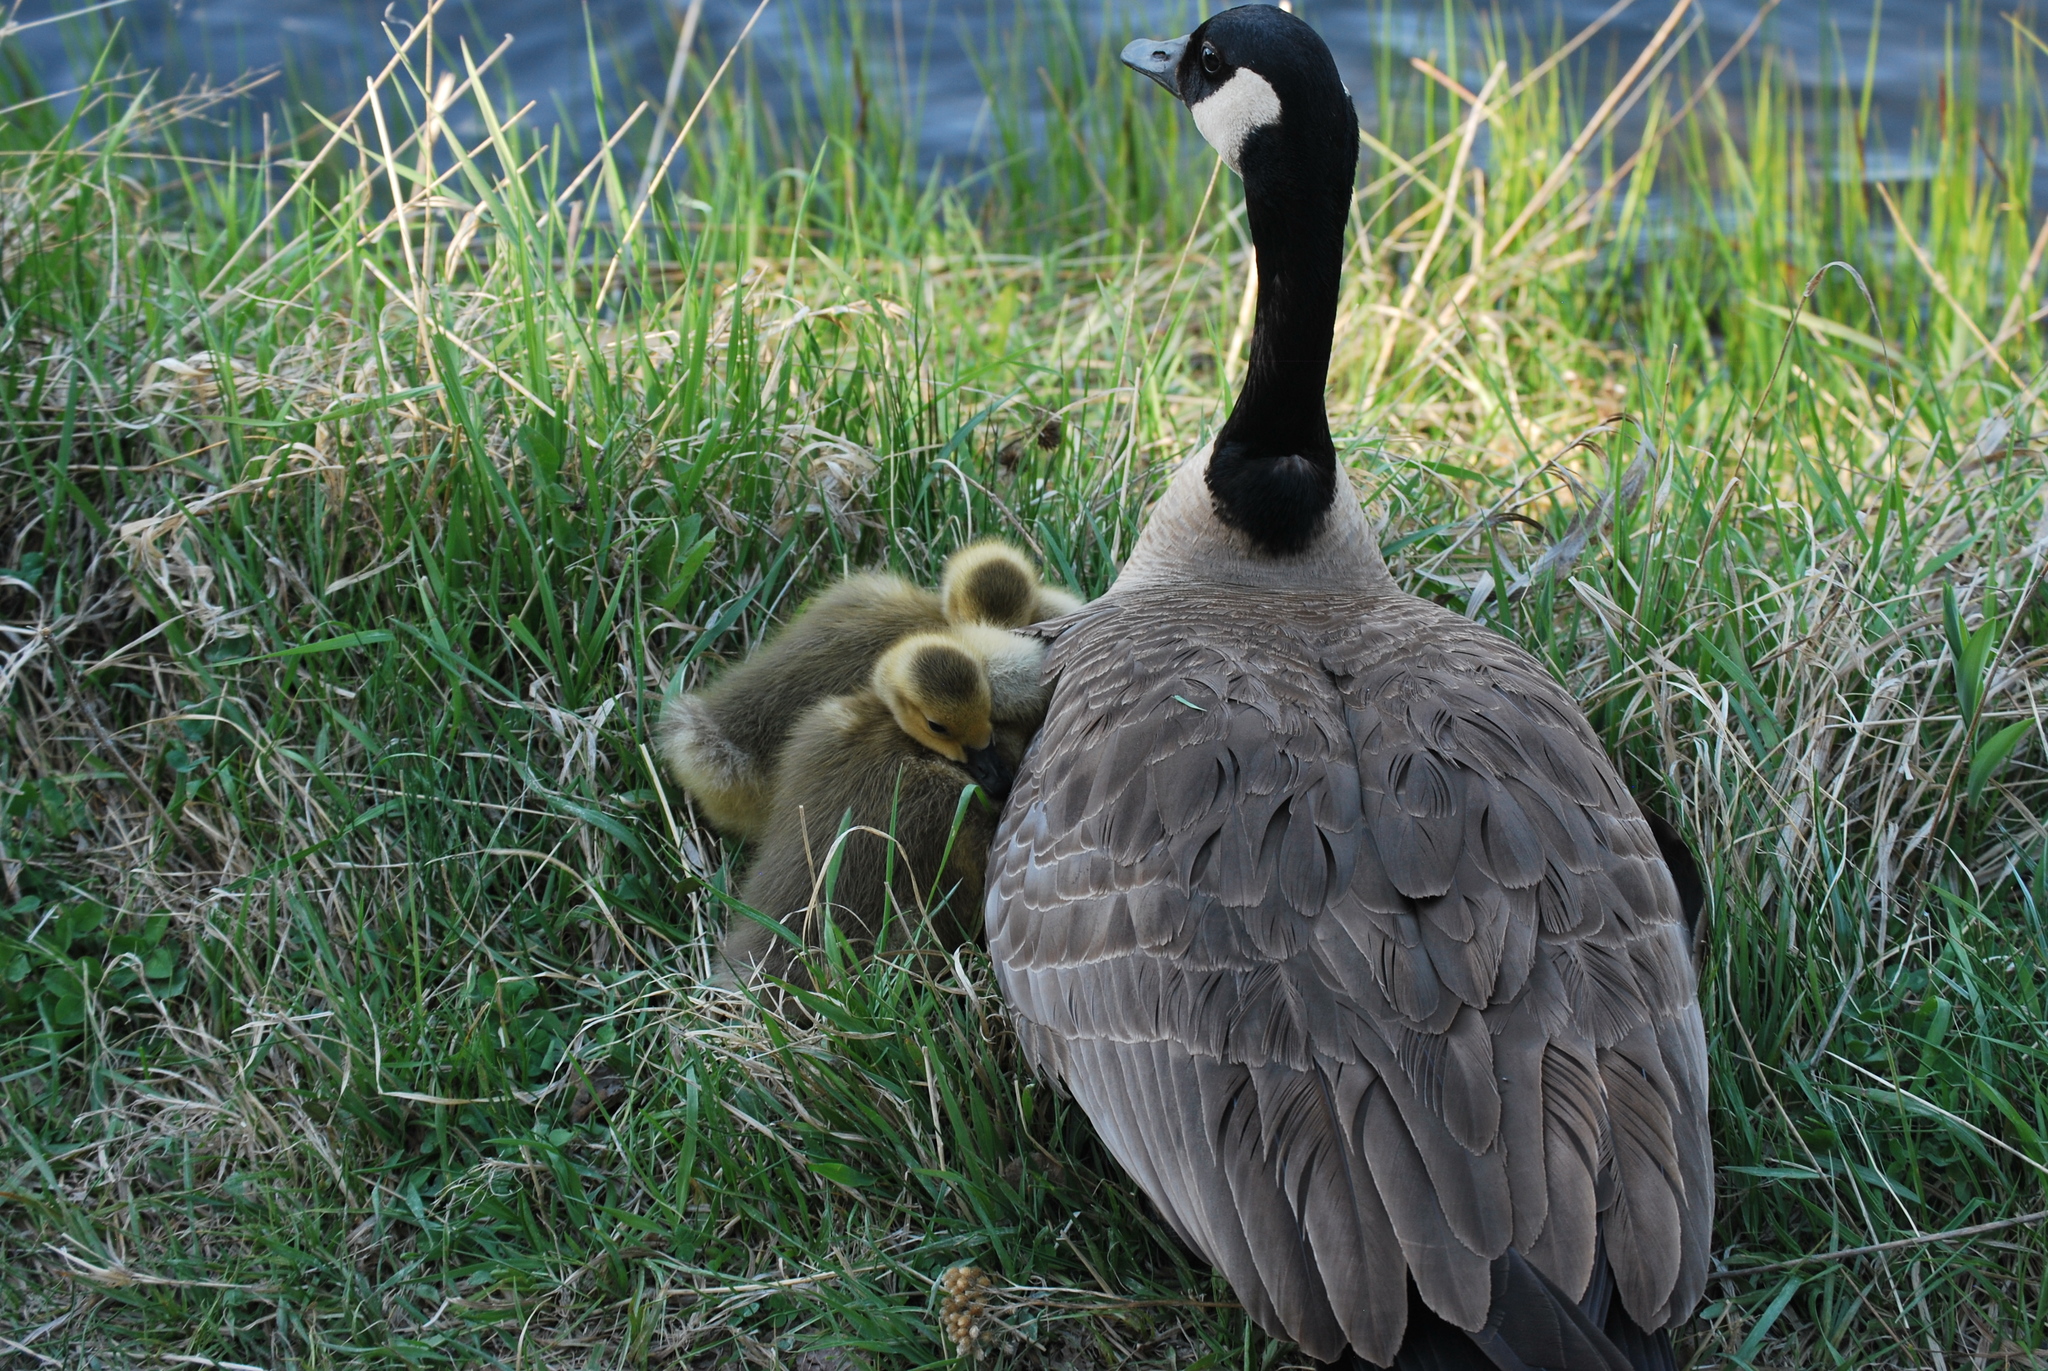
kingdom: Animalia
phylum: Chordata
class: Aves
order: Anseriformes
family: Anatidae
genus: Branta
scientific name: Branta canadensis
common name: Canada goose
